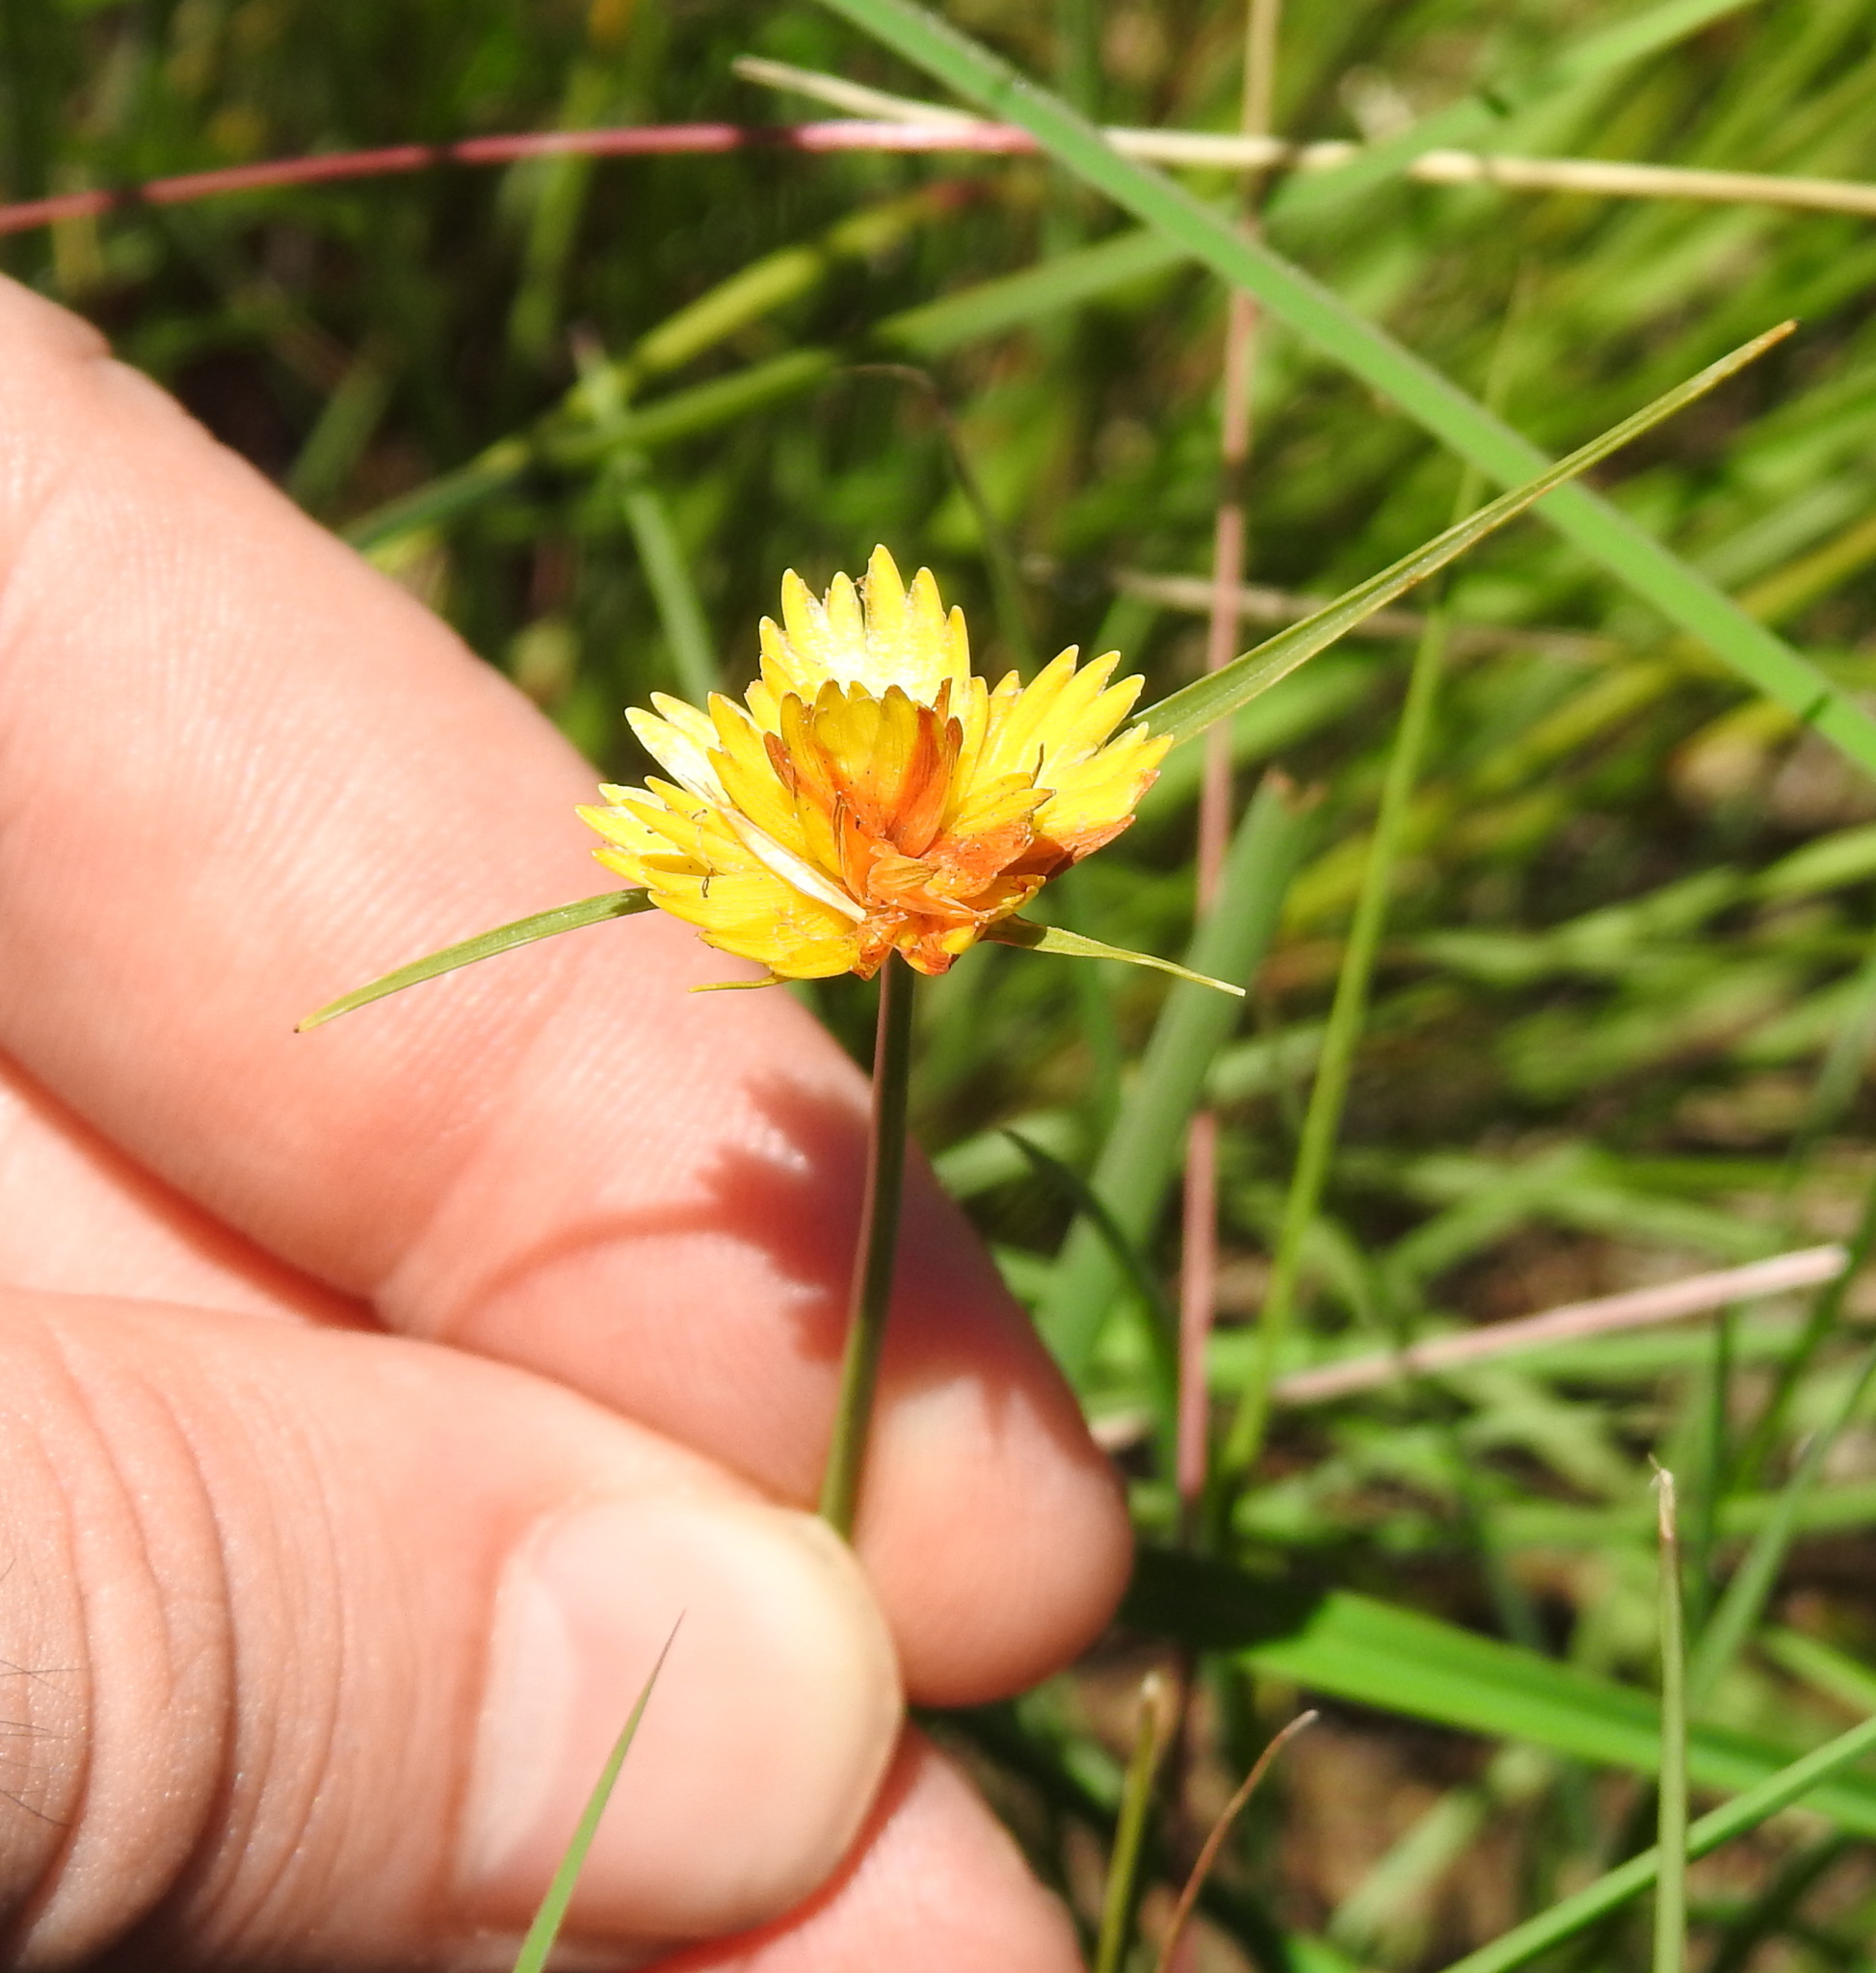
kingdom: Plantae
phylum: Tracheophyta
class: Liliopsida
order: Poales
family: Cyperaceae
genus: Cyperus
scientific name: Cyperus sphaerocephalus
